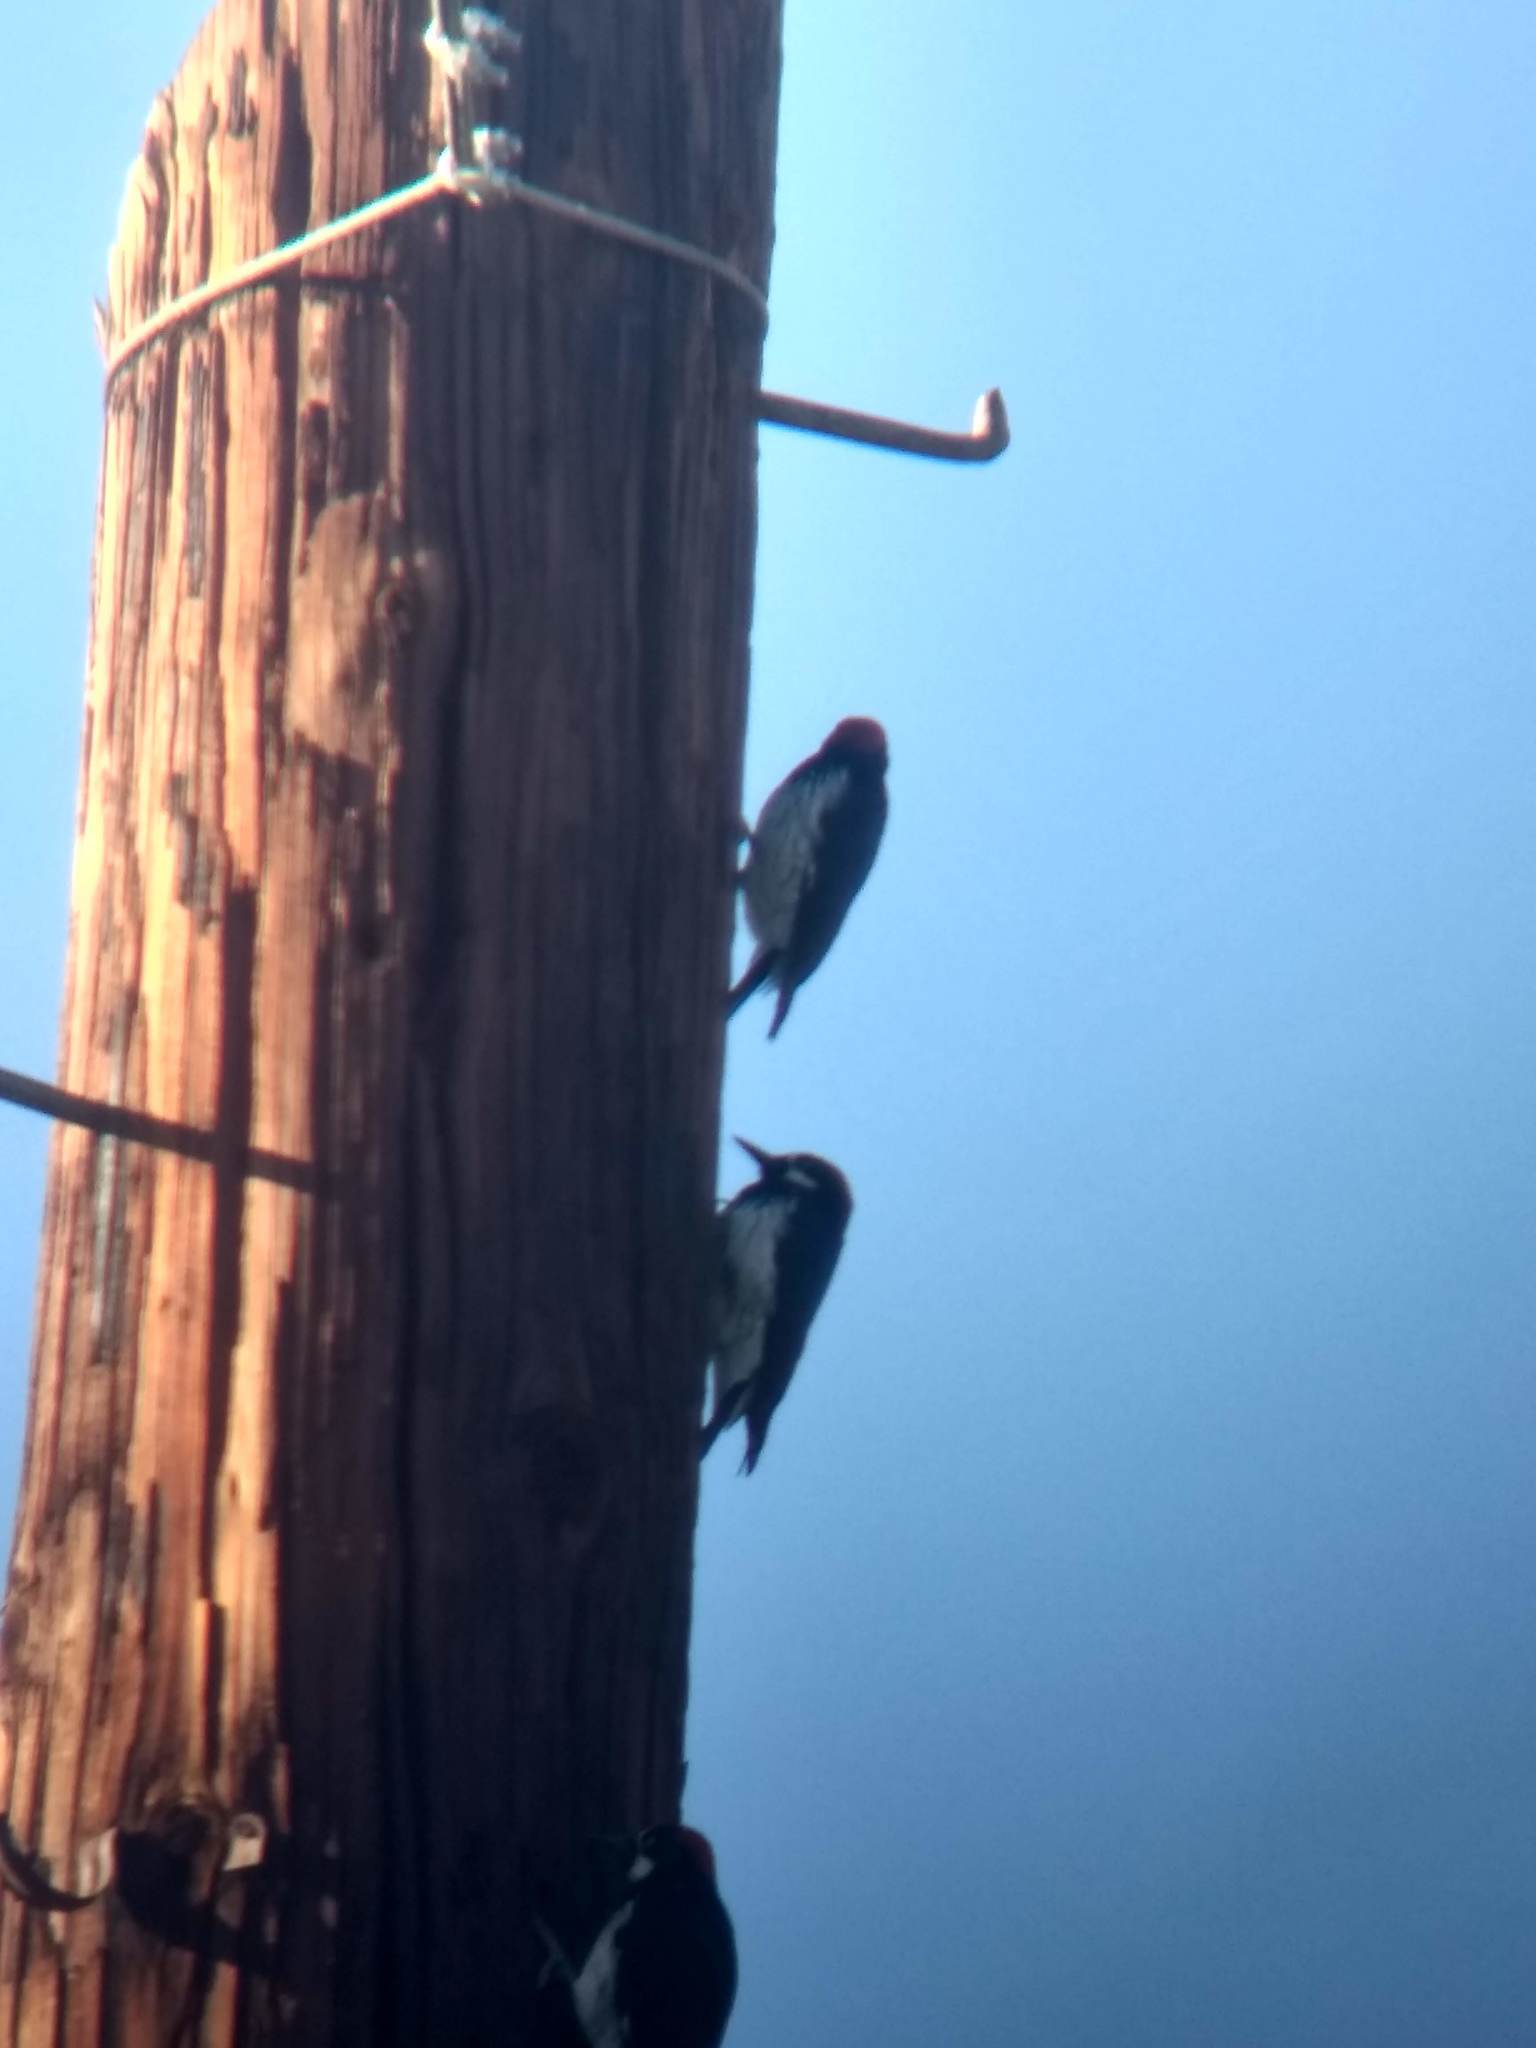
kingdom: Animalia
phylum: Chordata
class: Aves
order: Piciformes
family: Picidae
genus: Melanerpes
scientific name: Melanerpes formicivorus
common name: Acorn woodpecker
